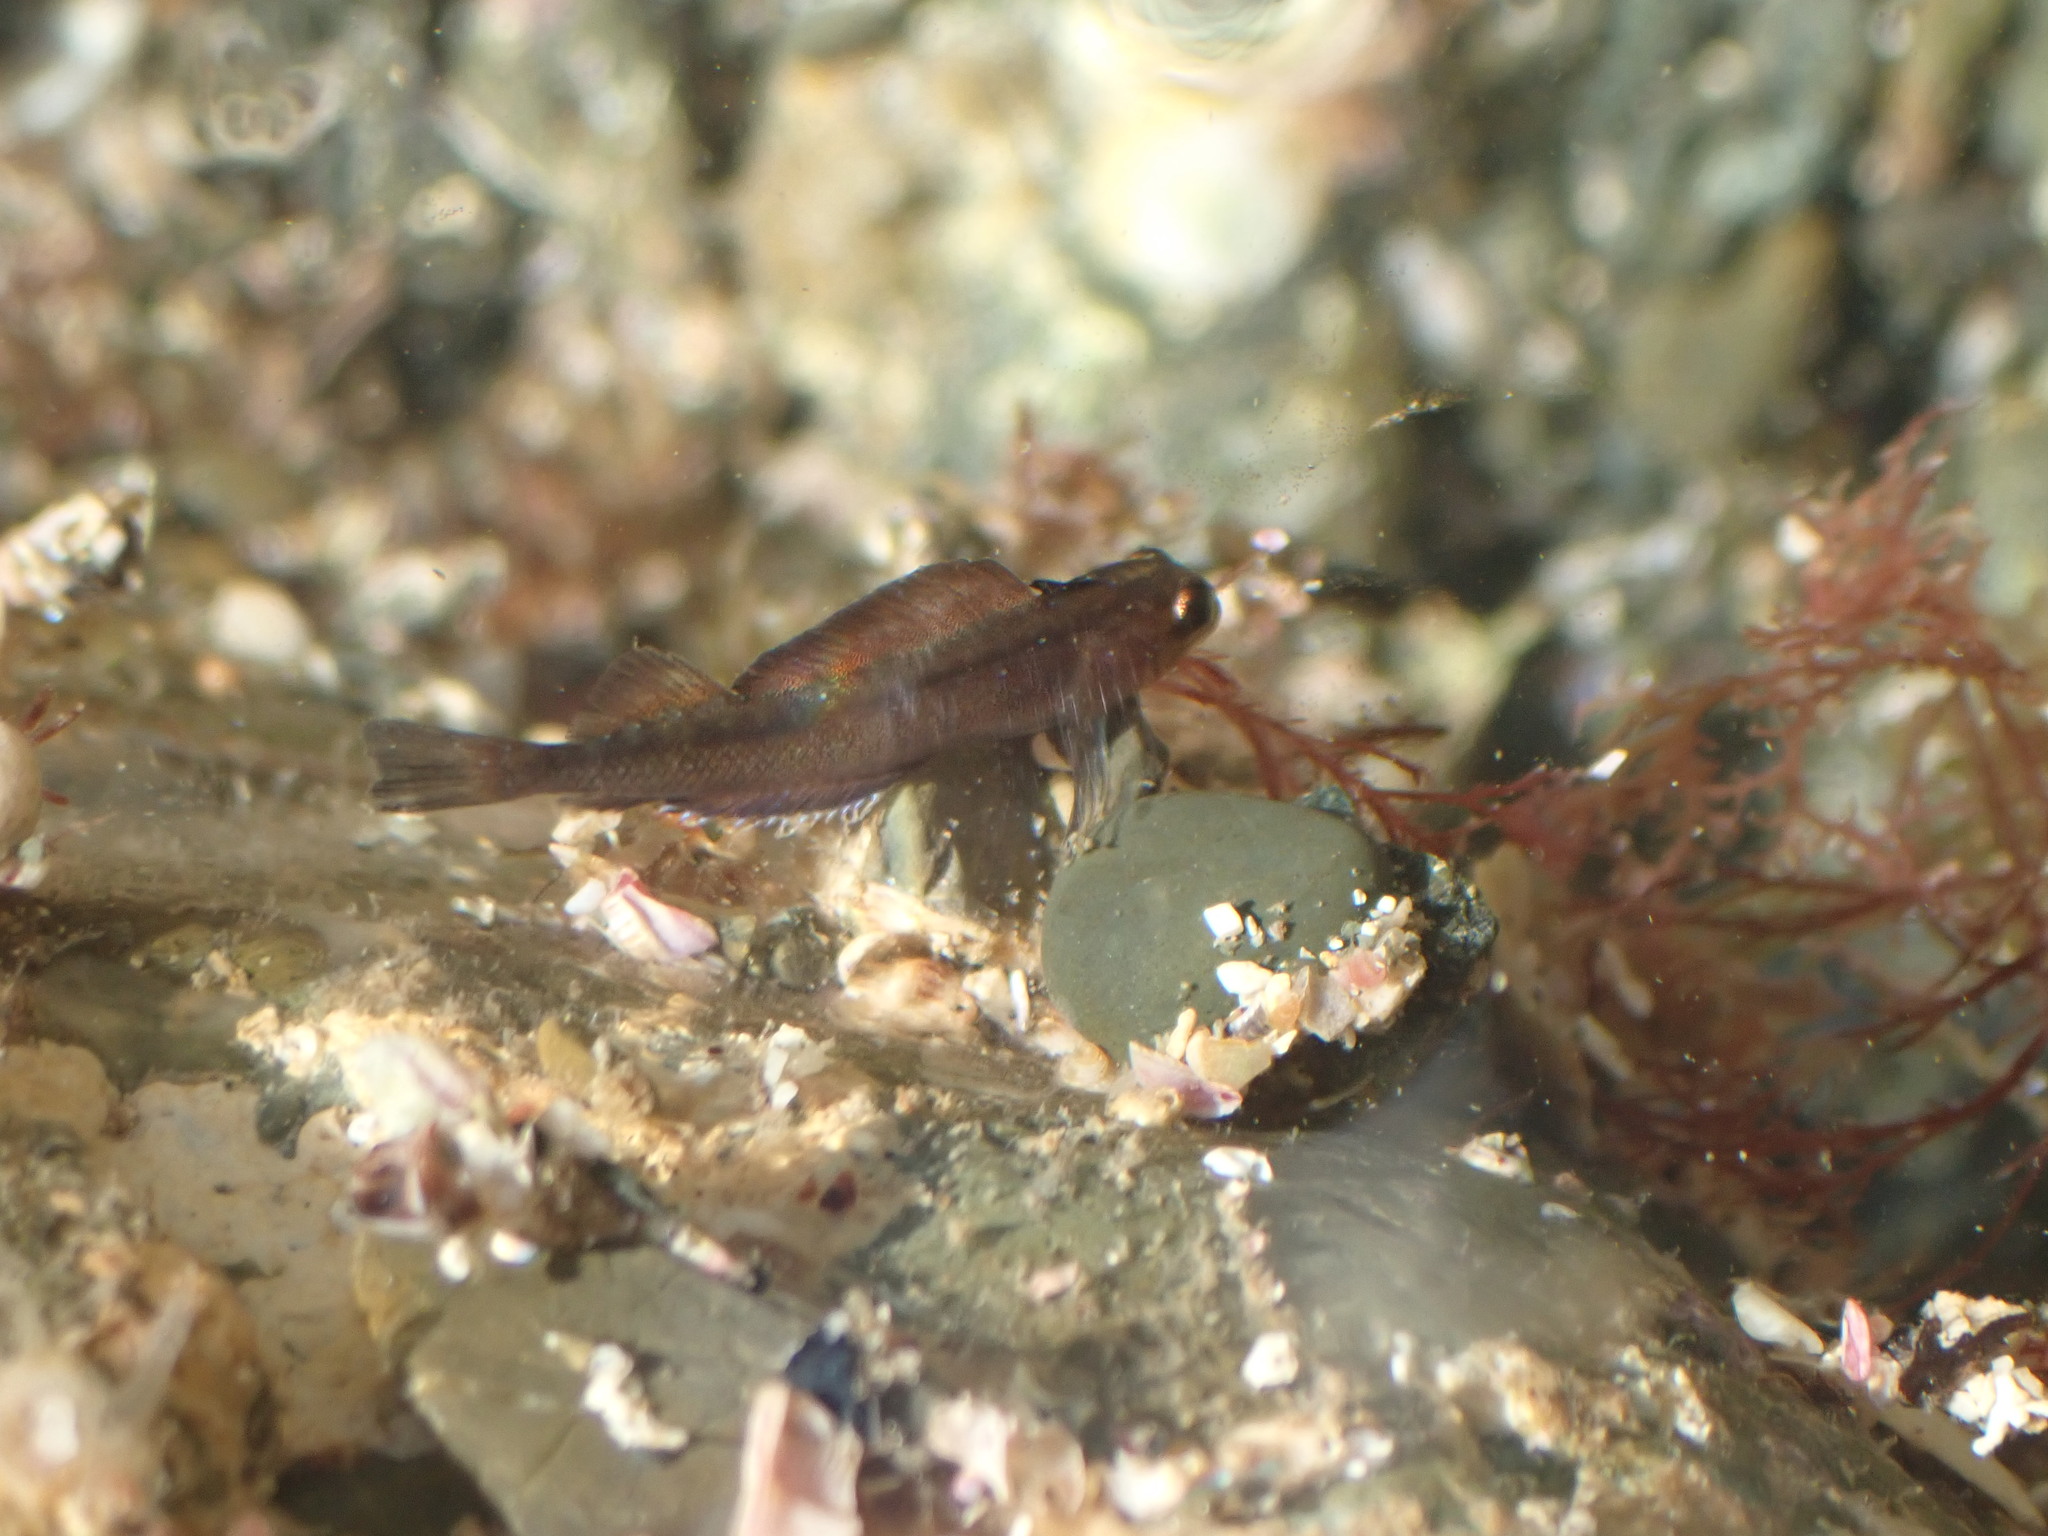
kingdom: Animalia
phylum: Chordata
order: Perciformes
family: Tripterygiidae
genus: Forsterygion
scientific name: Forsterygion lapillum
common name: Common triplefin
